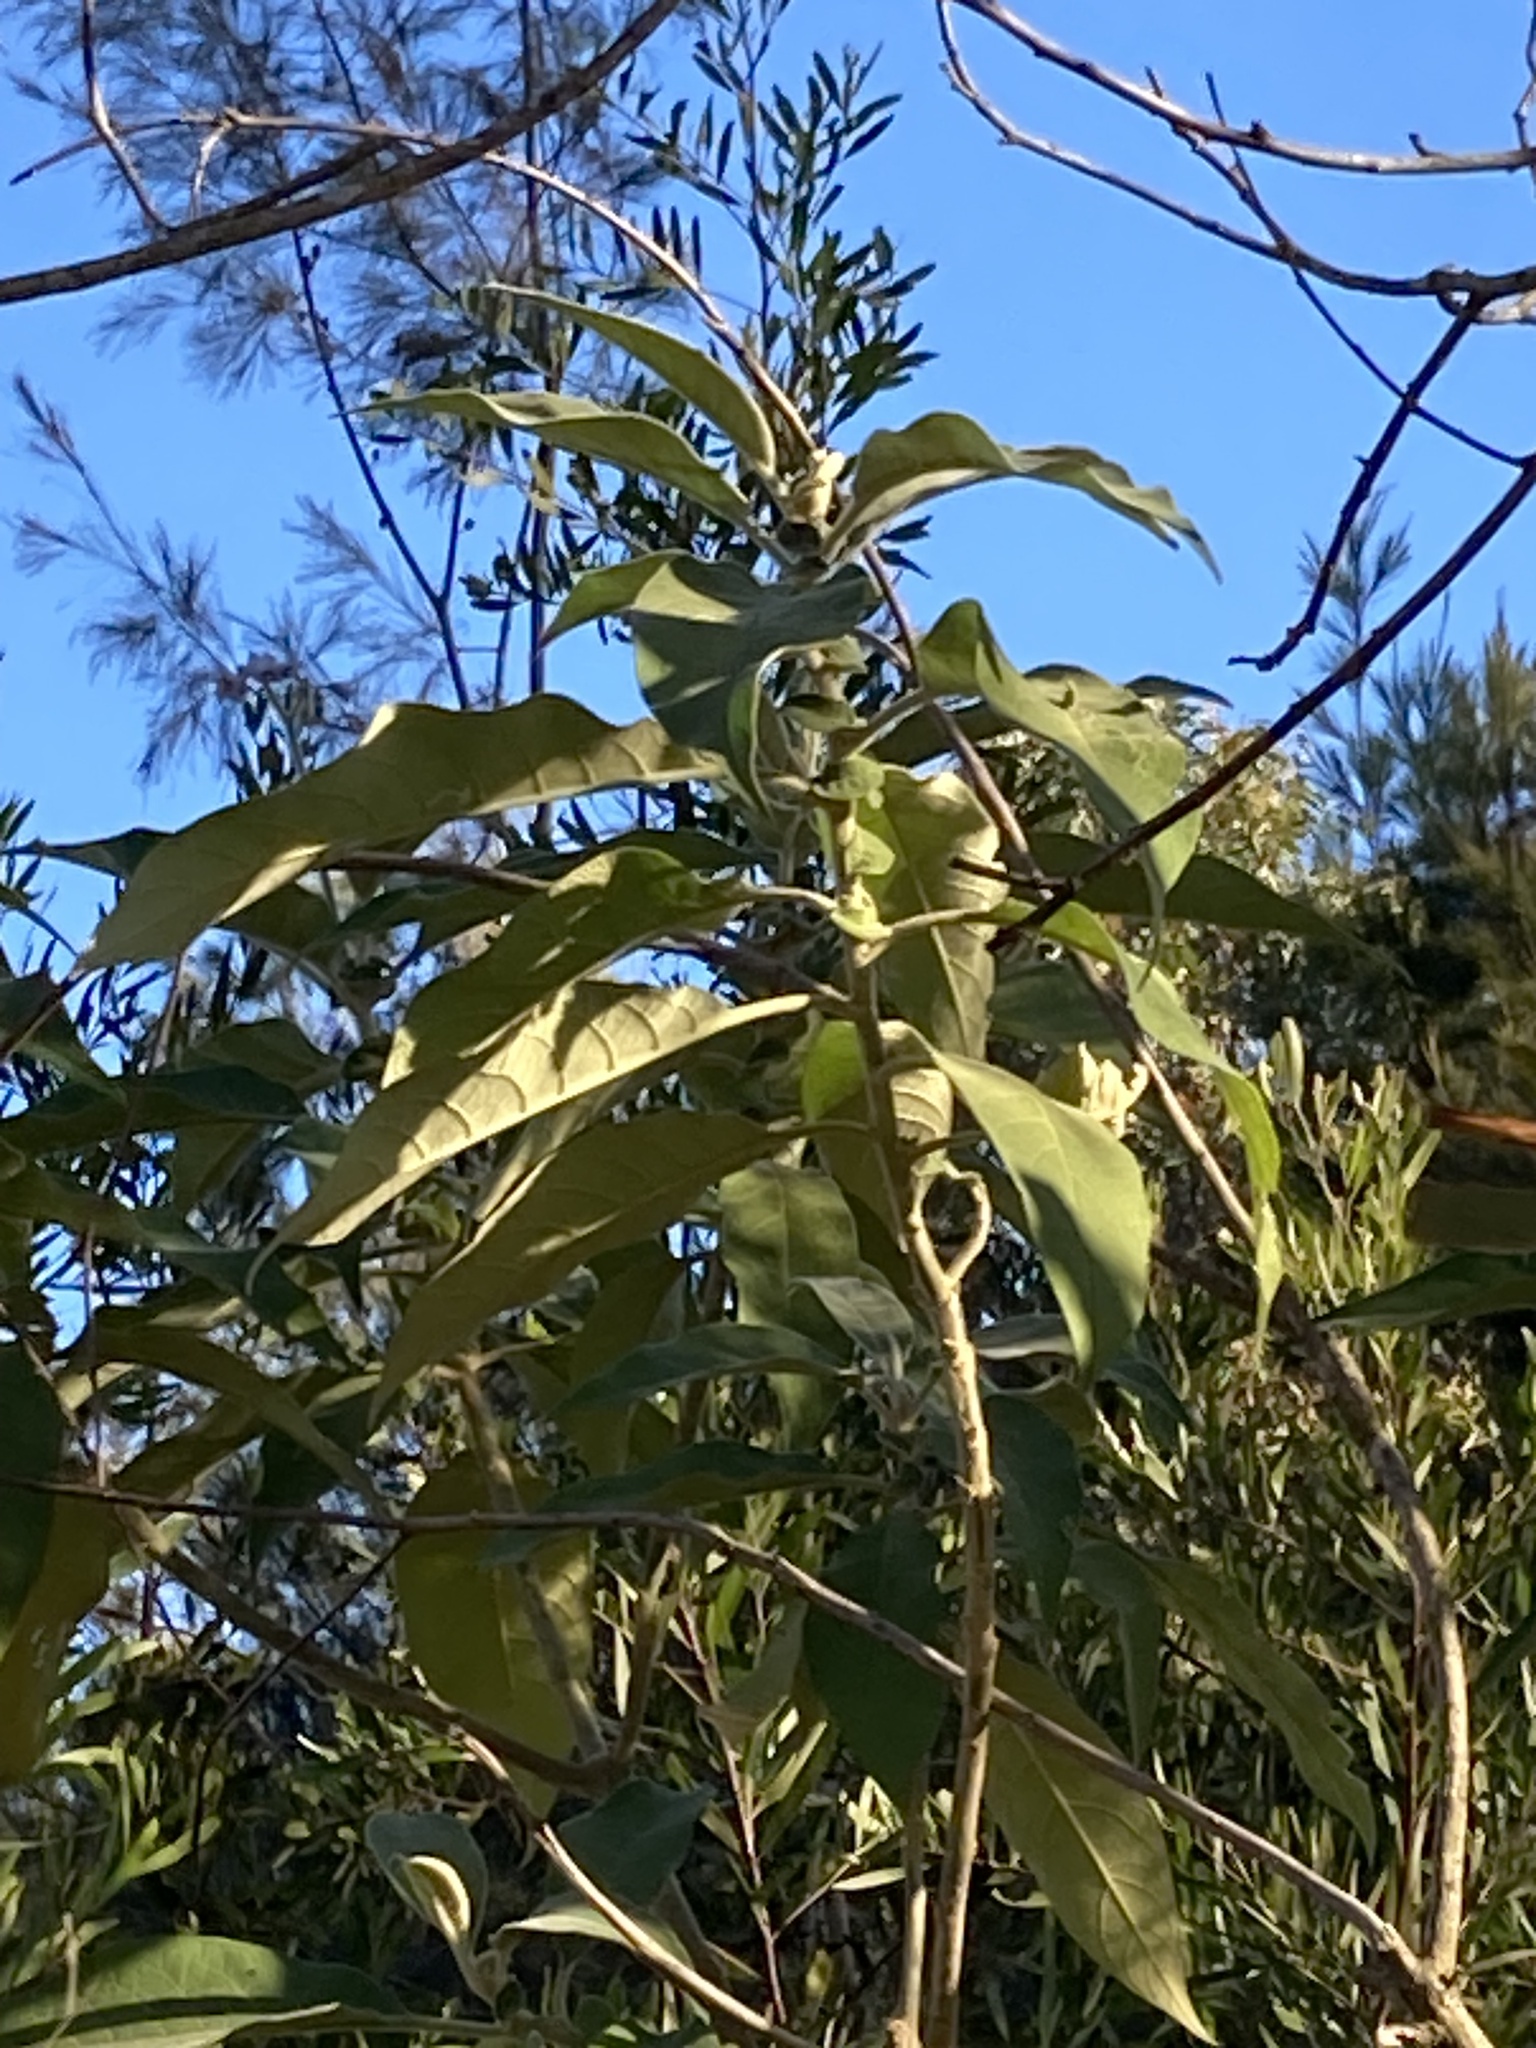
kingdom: Plantae
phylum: Tracheophyta
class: Magnoliopsida
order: Solanales
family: Solanaceae
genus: Solanum
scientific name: Solanum mauritianum
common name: Earleaf nightshade
